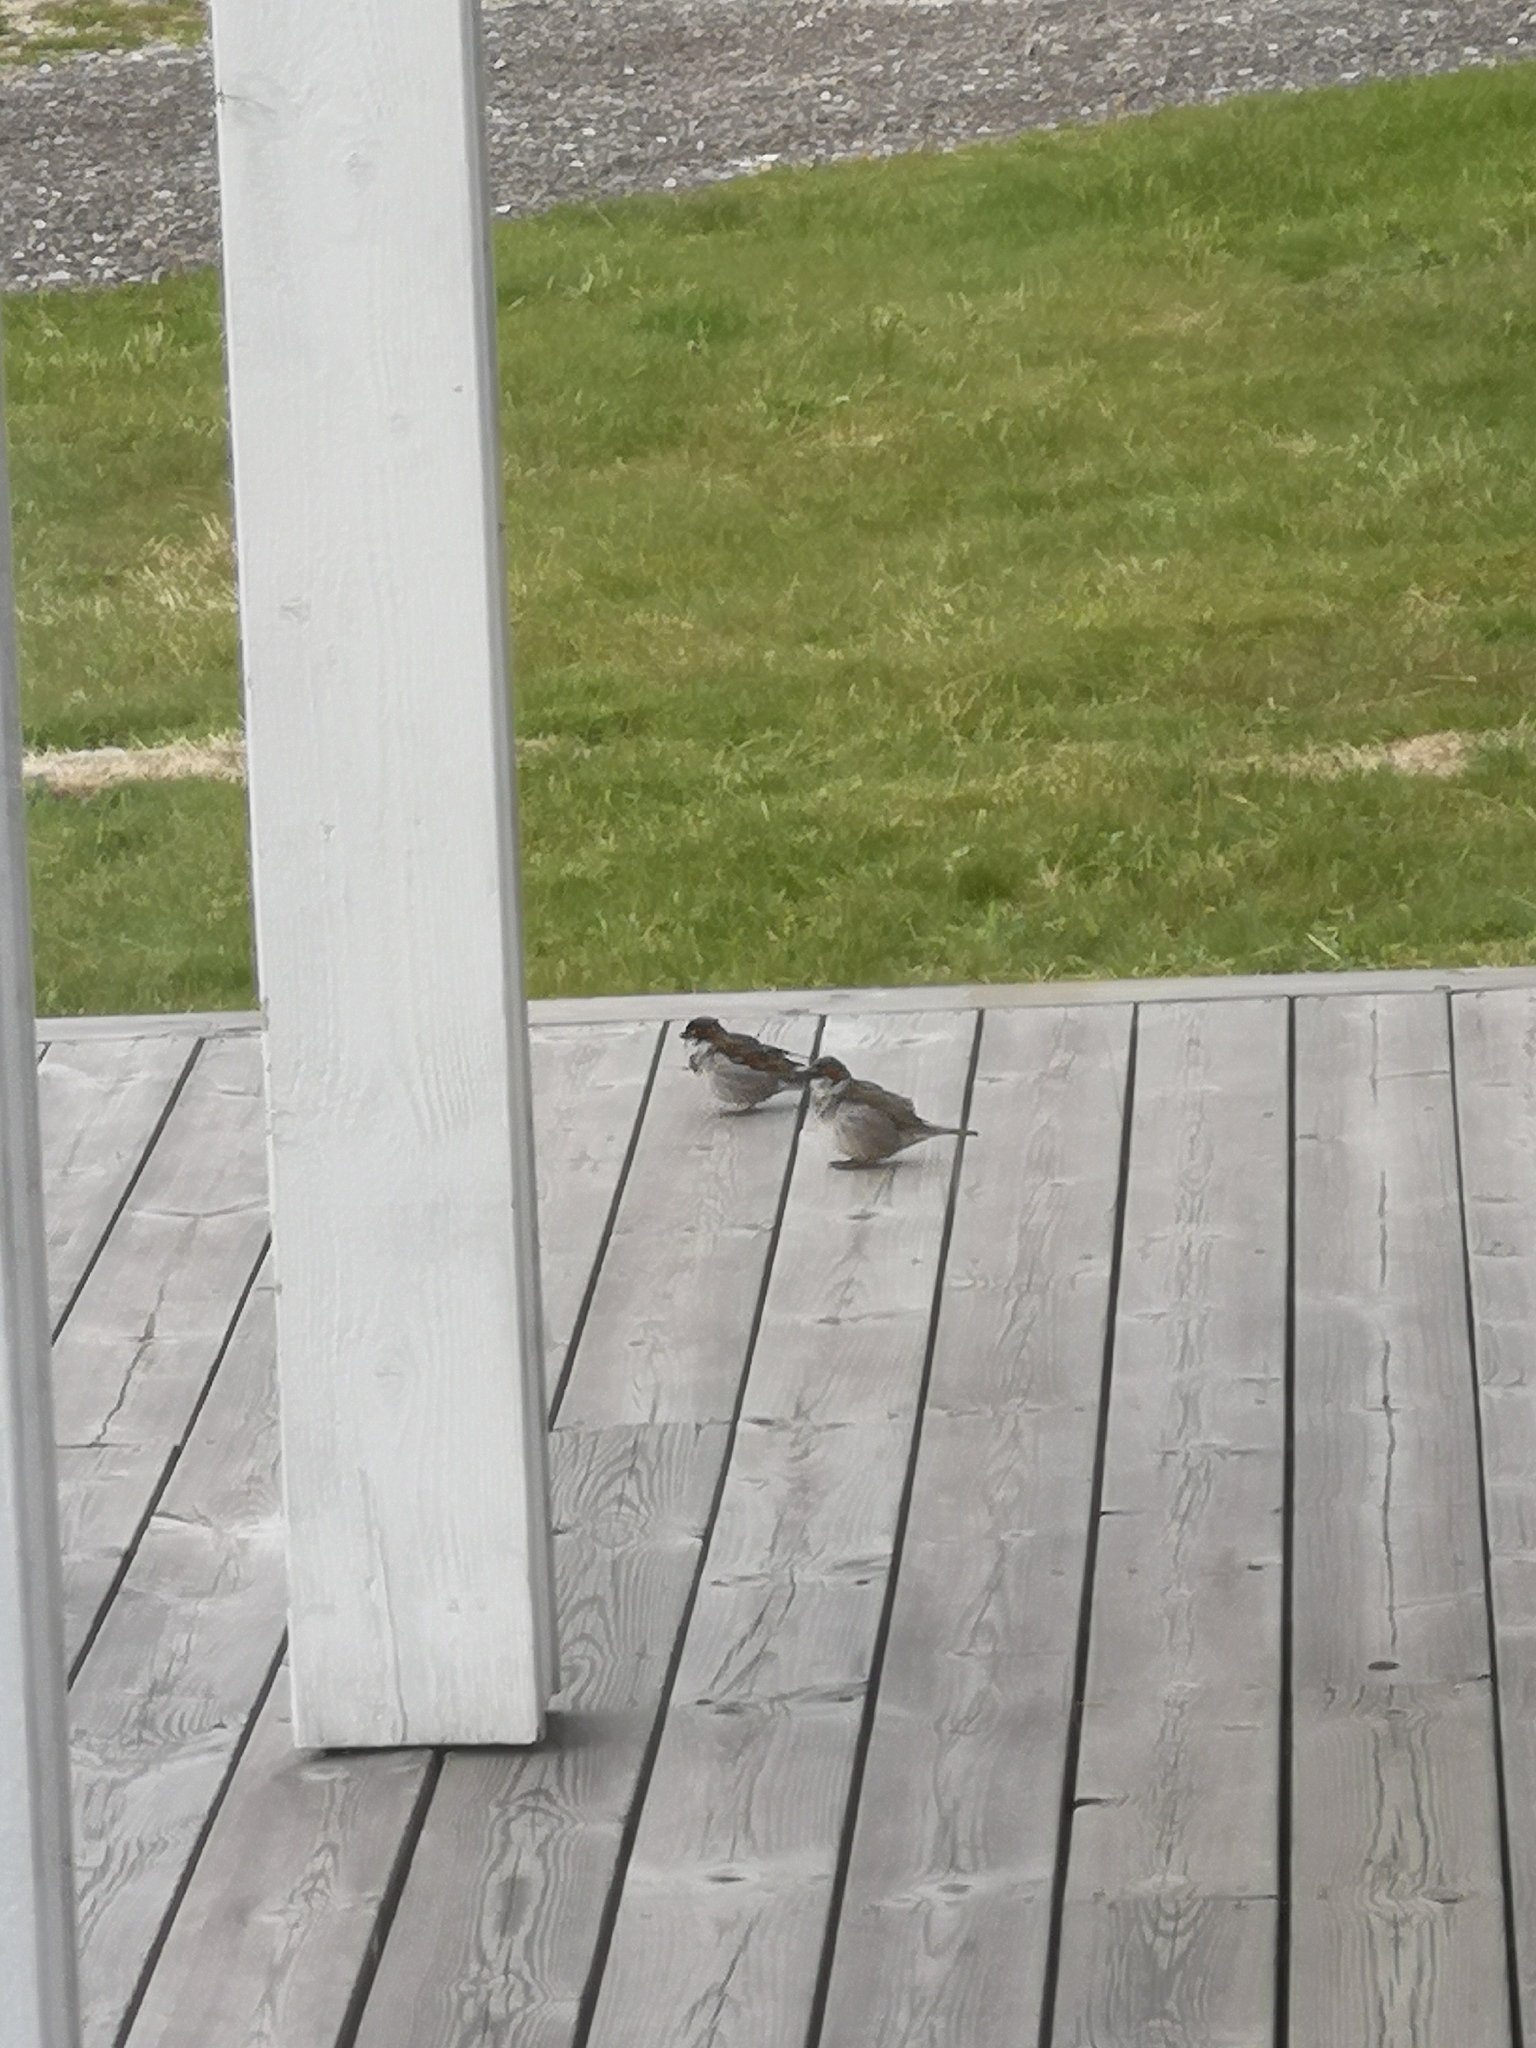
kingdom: Animalia
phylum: Chordata
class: Aves
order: Passeriformes
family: Passeridae
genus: Passer
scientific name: Passer domesticus
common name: House sparrow
